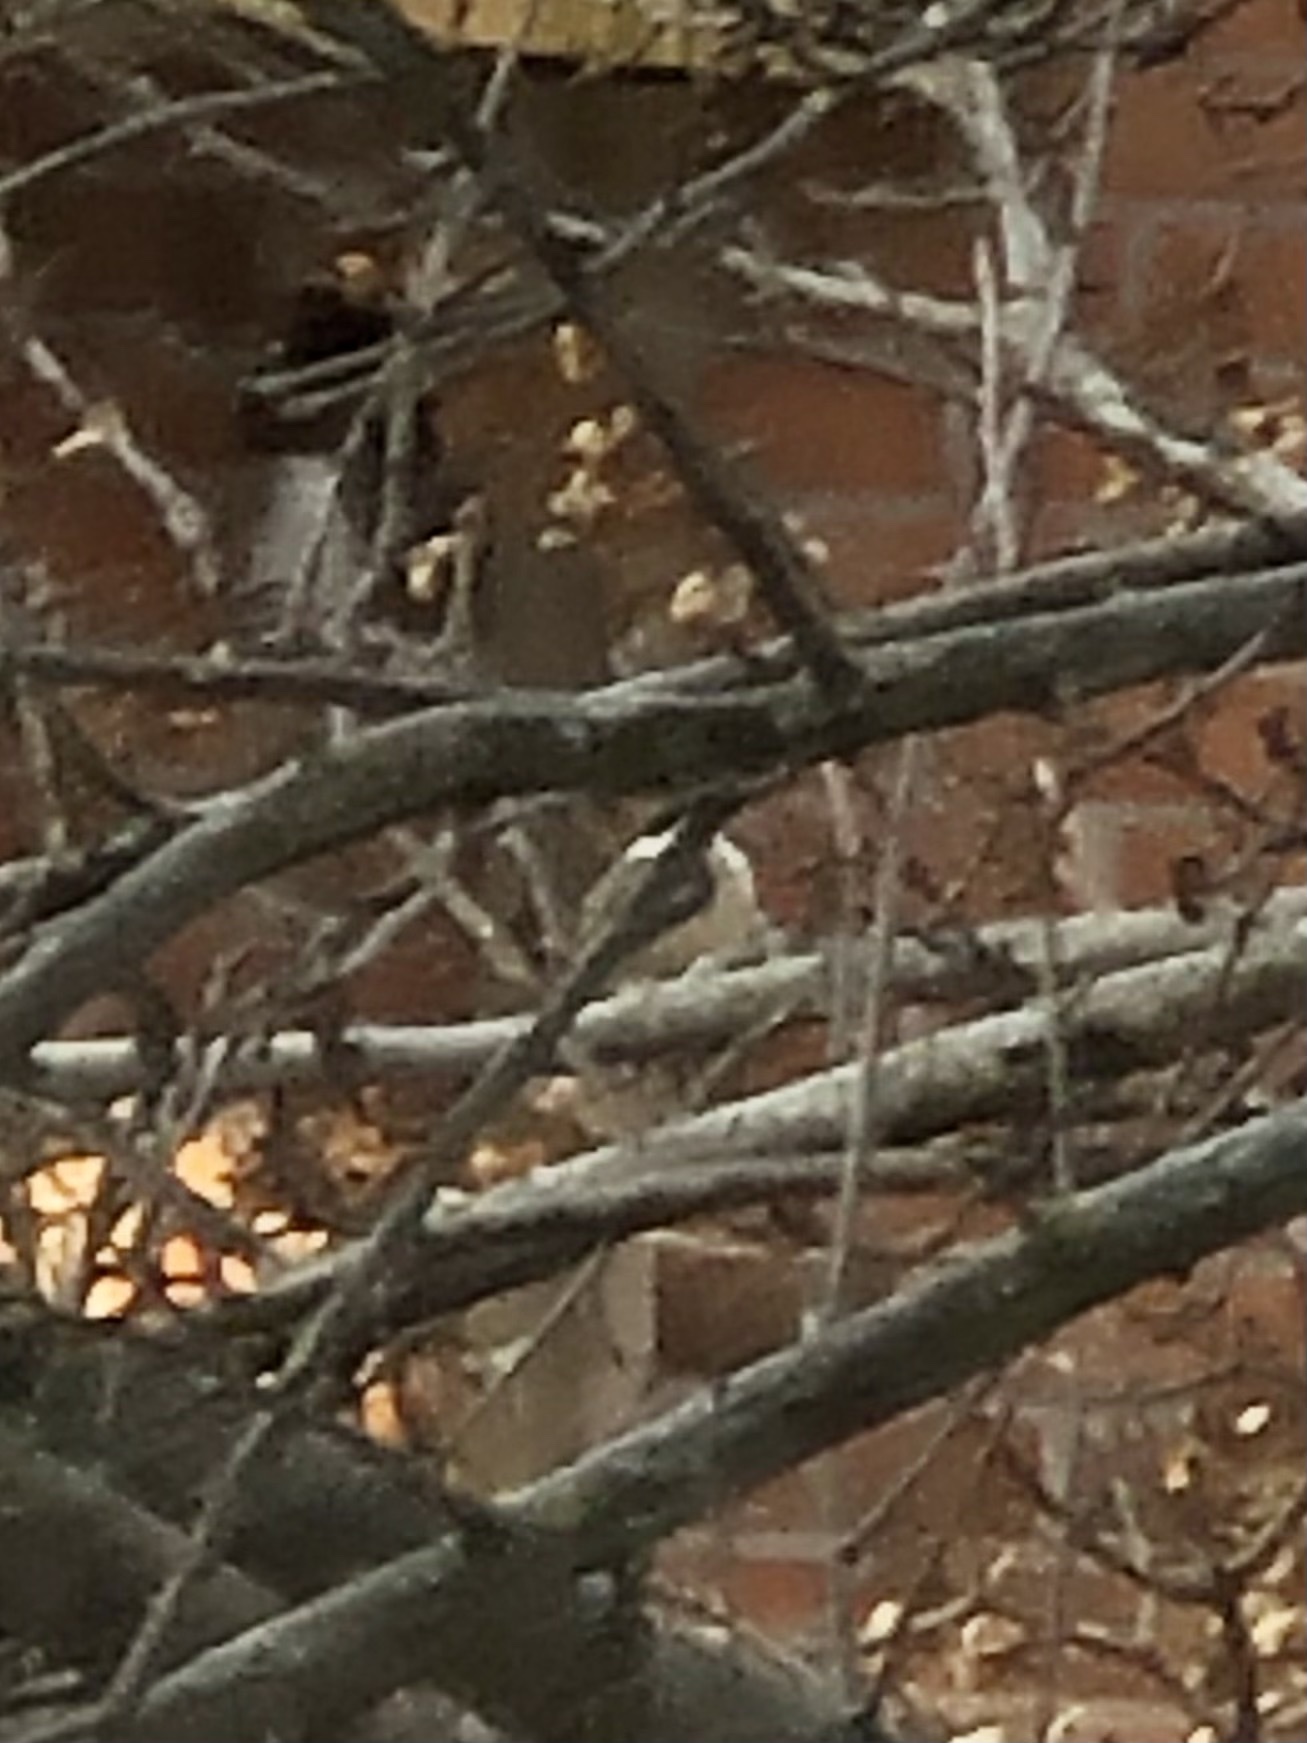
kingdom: Animalia
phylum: Chordata
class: Aves
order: Passeriformes
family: Paridae
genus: Poecile
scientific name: Poecile atricapillus
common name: Black-capped chickadee
